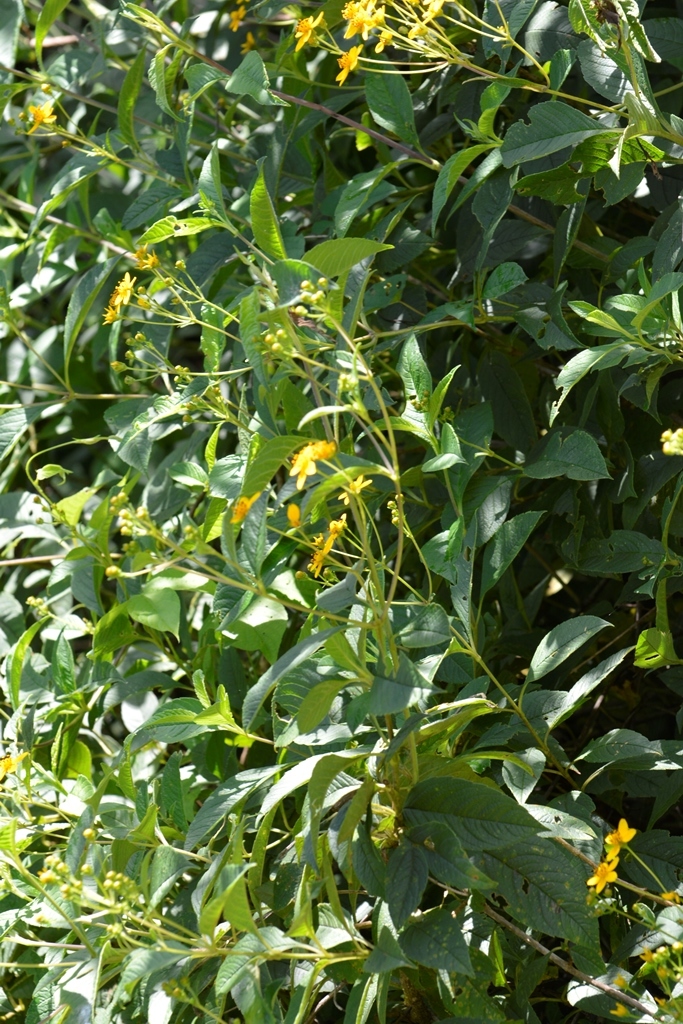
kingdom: Plantae
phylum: Tracheophyta
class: Magnoliopsida
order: Asterales
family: Asteraceae
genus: Electranthera
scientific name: Electranthera mutica
